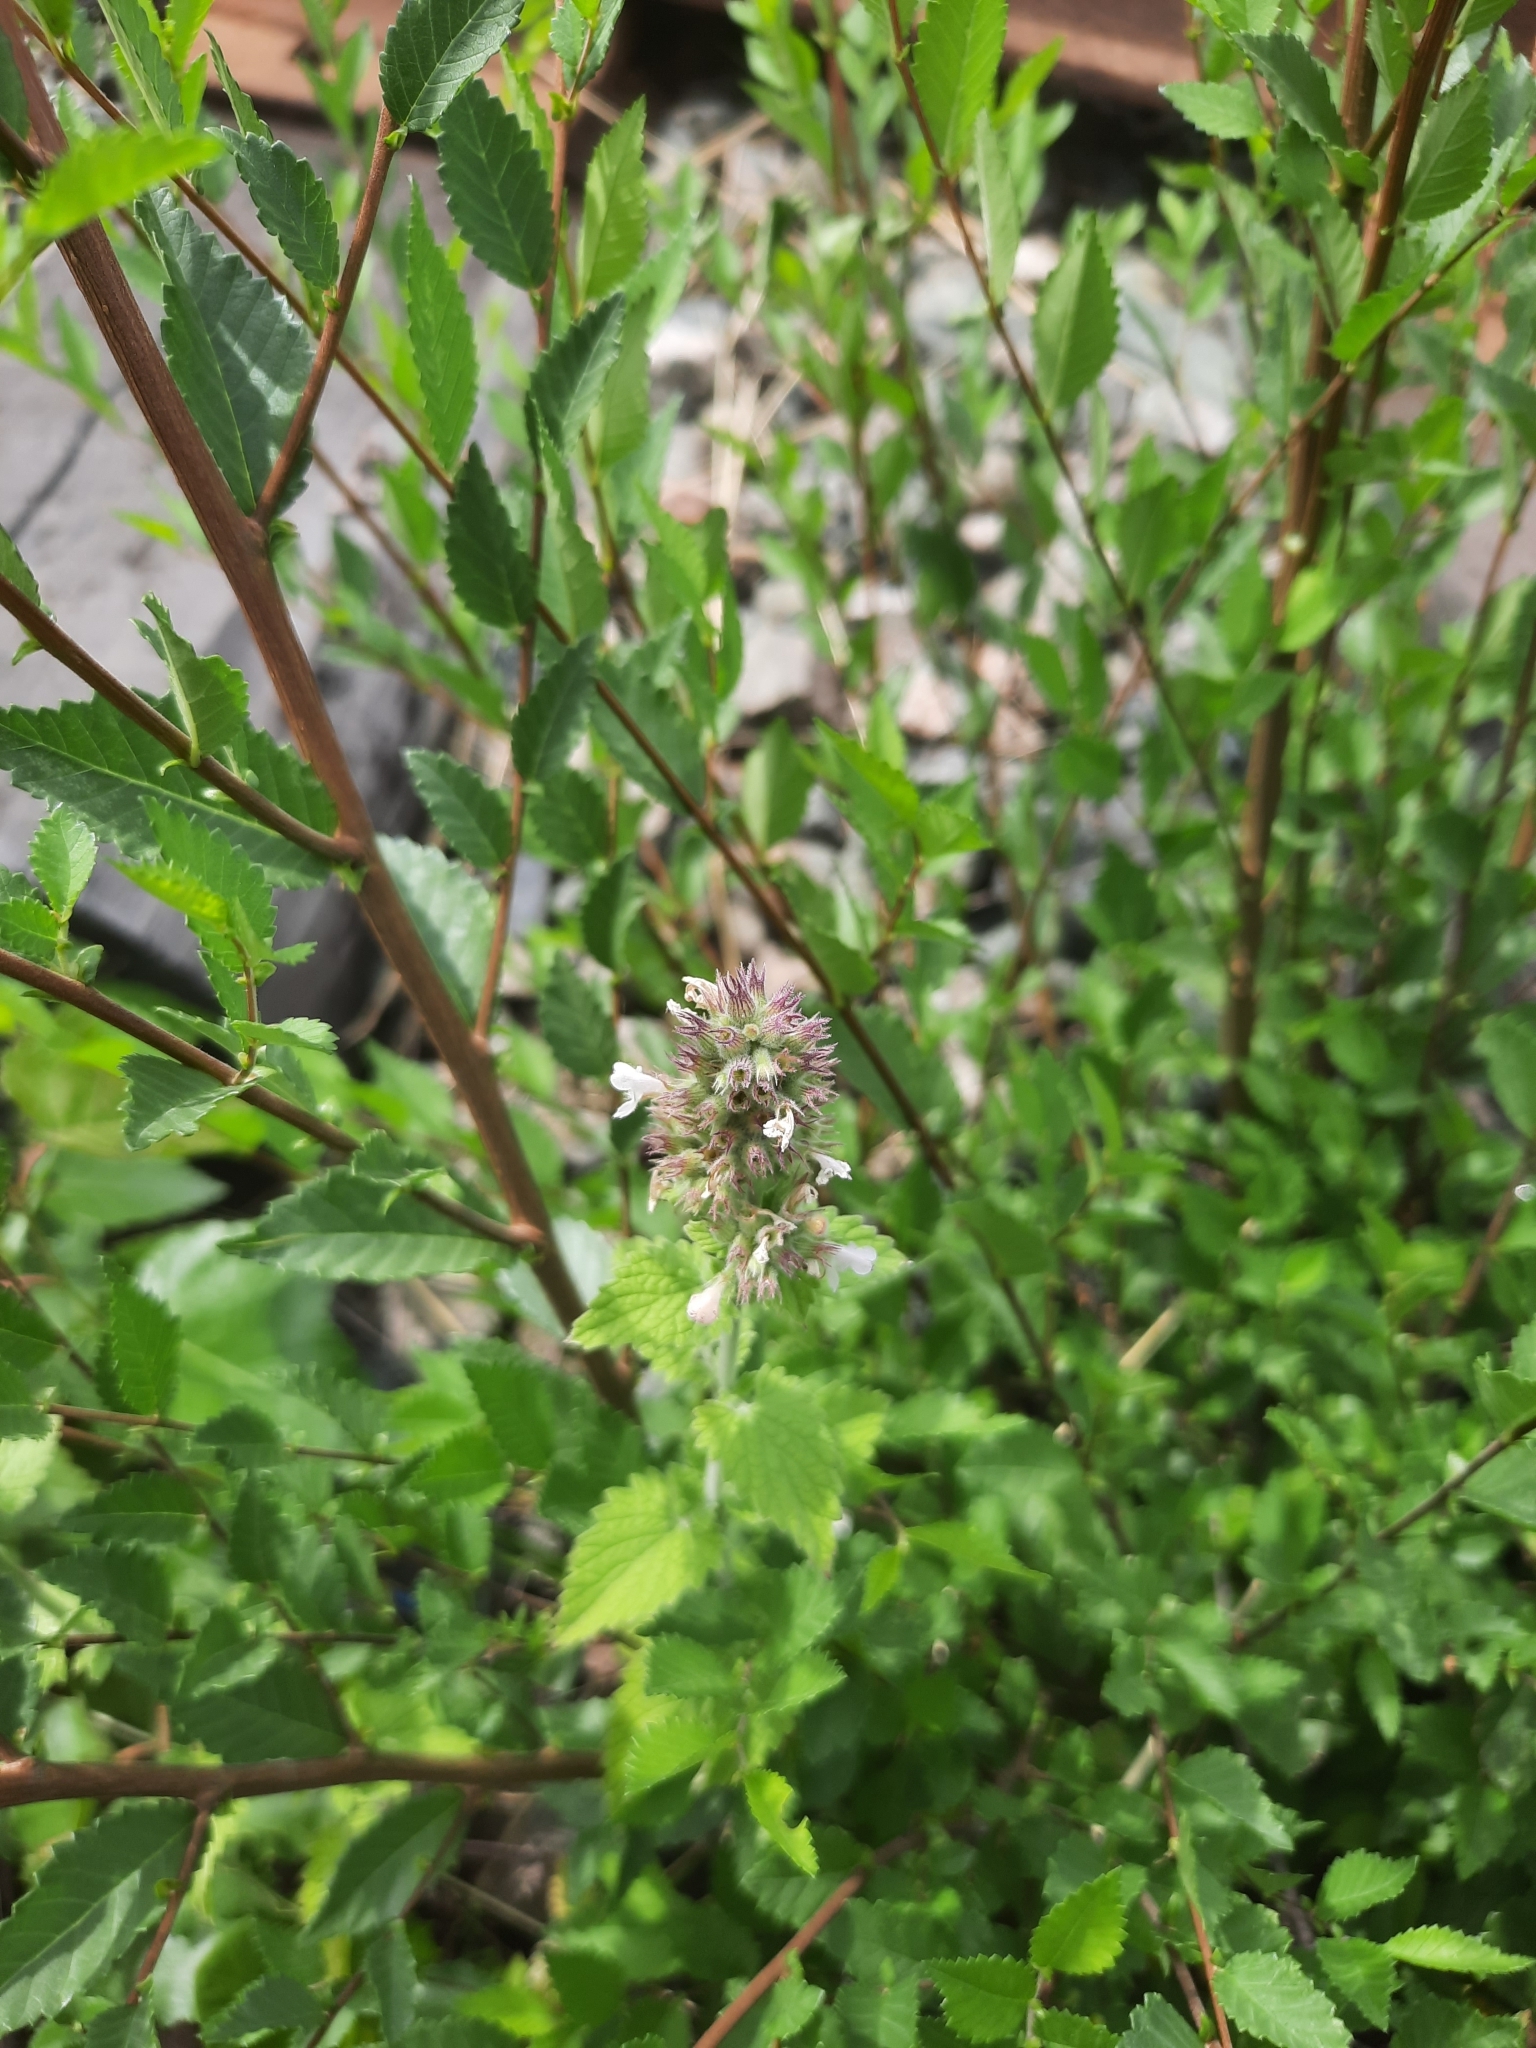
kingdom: Plantae
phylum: Tracheophyta
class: Magnoliopsida
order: Lamiales
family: Lamiaceae
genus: Nepeta
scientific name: Nepeta cataria
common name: Catnip
